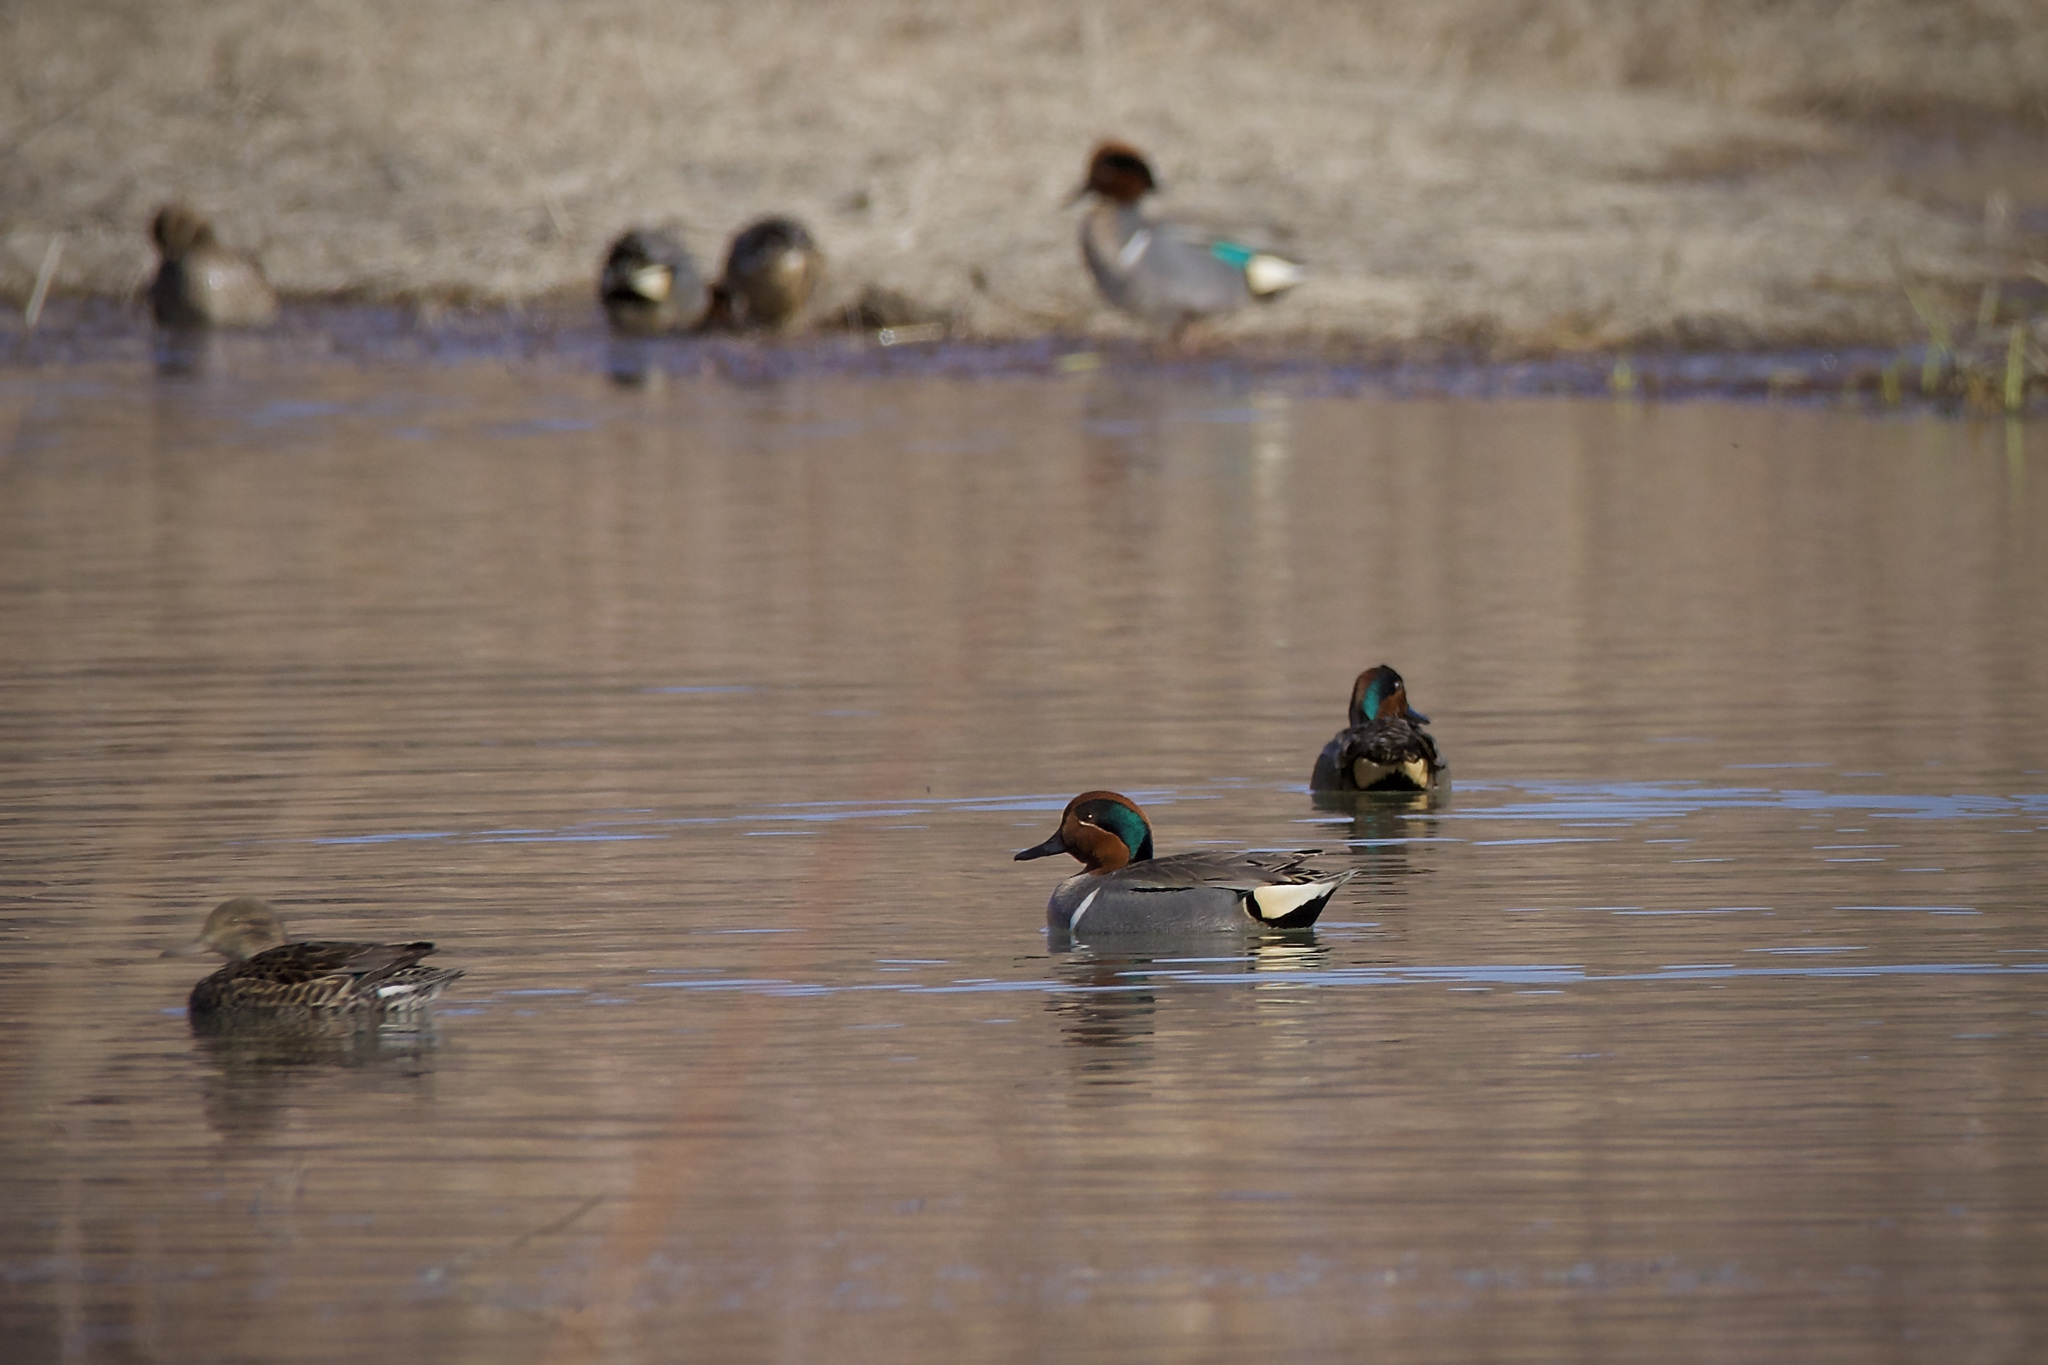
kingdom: Animalia
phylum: Chordata
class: Aves
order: Anseriformes
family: Anatidae
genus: Anas
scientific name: Anas crecca
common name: Eurasian teal
